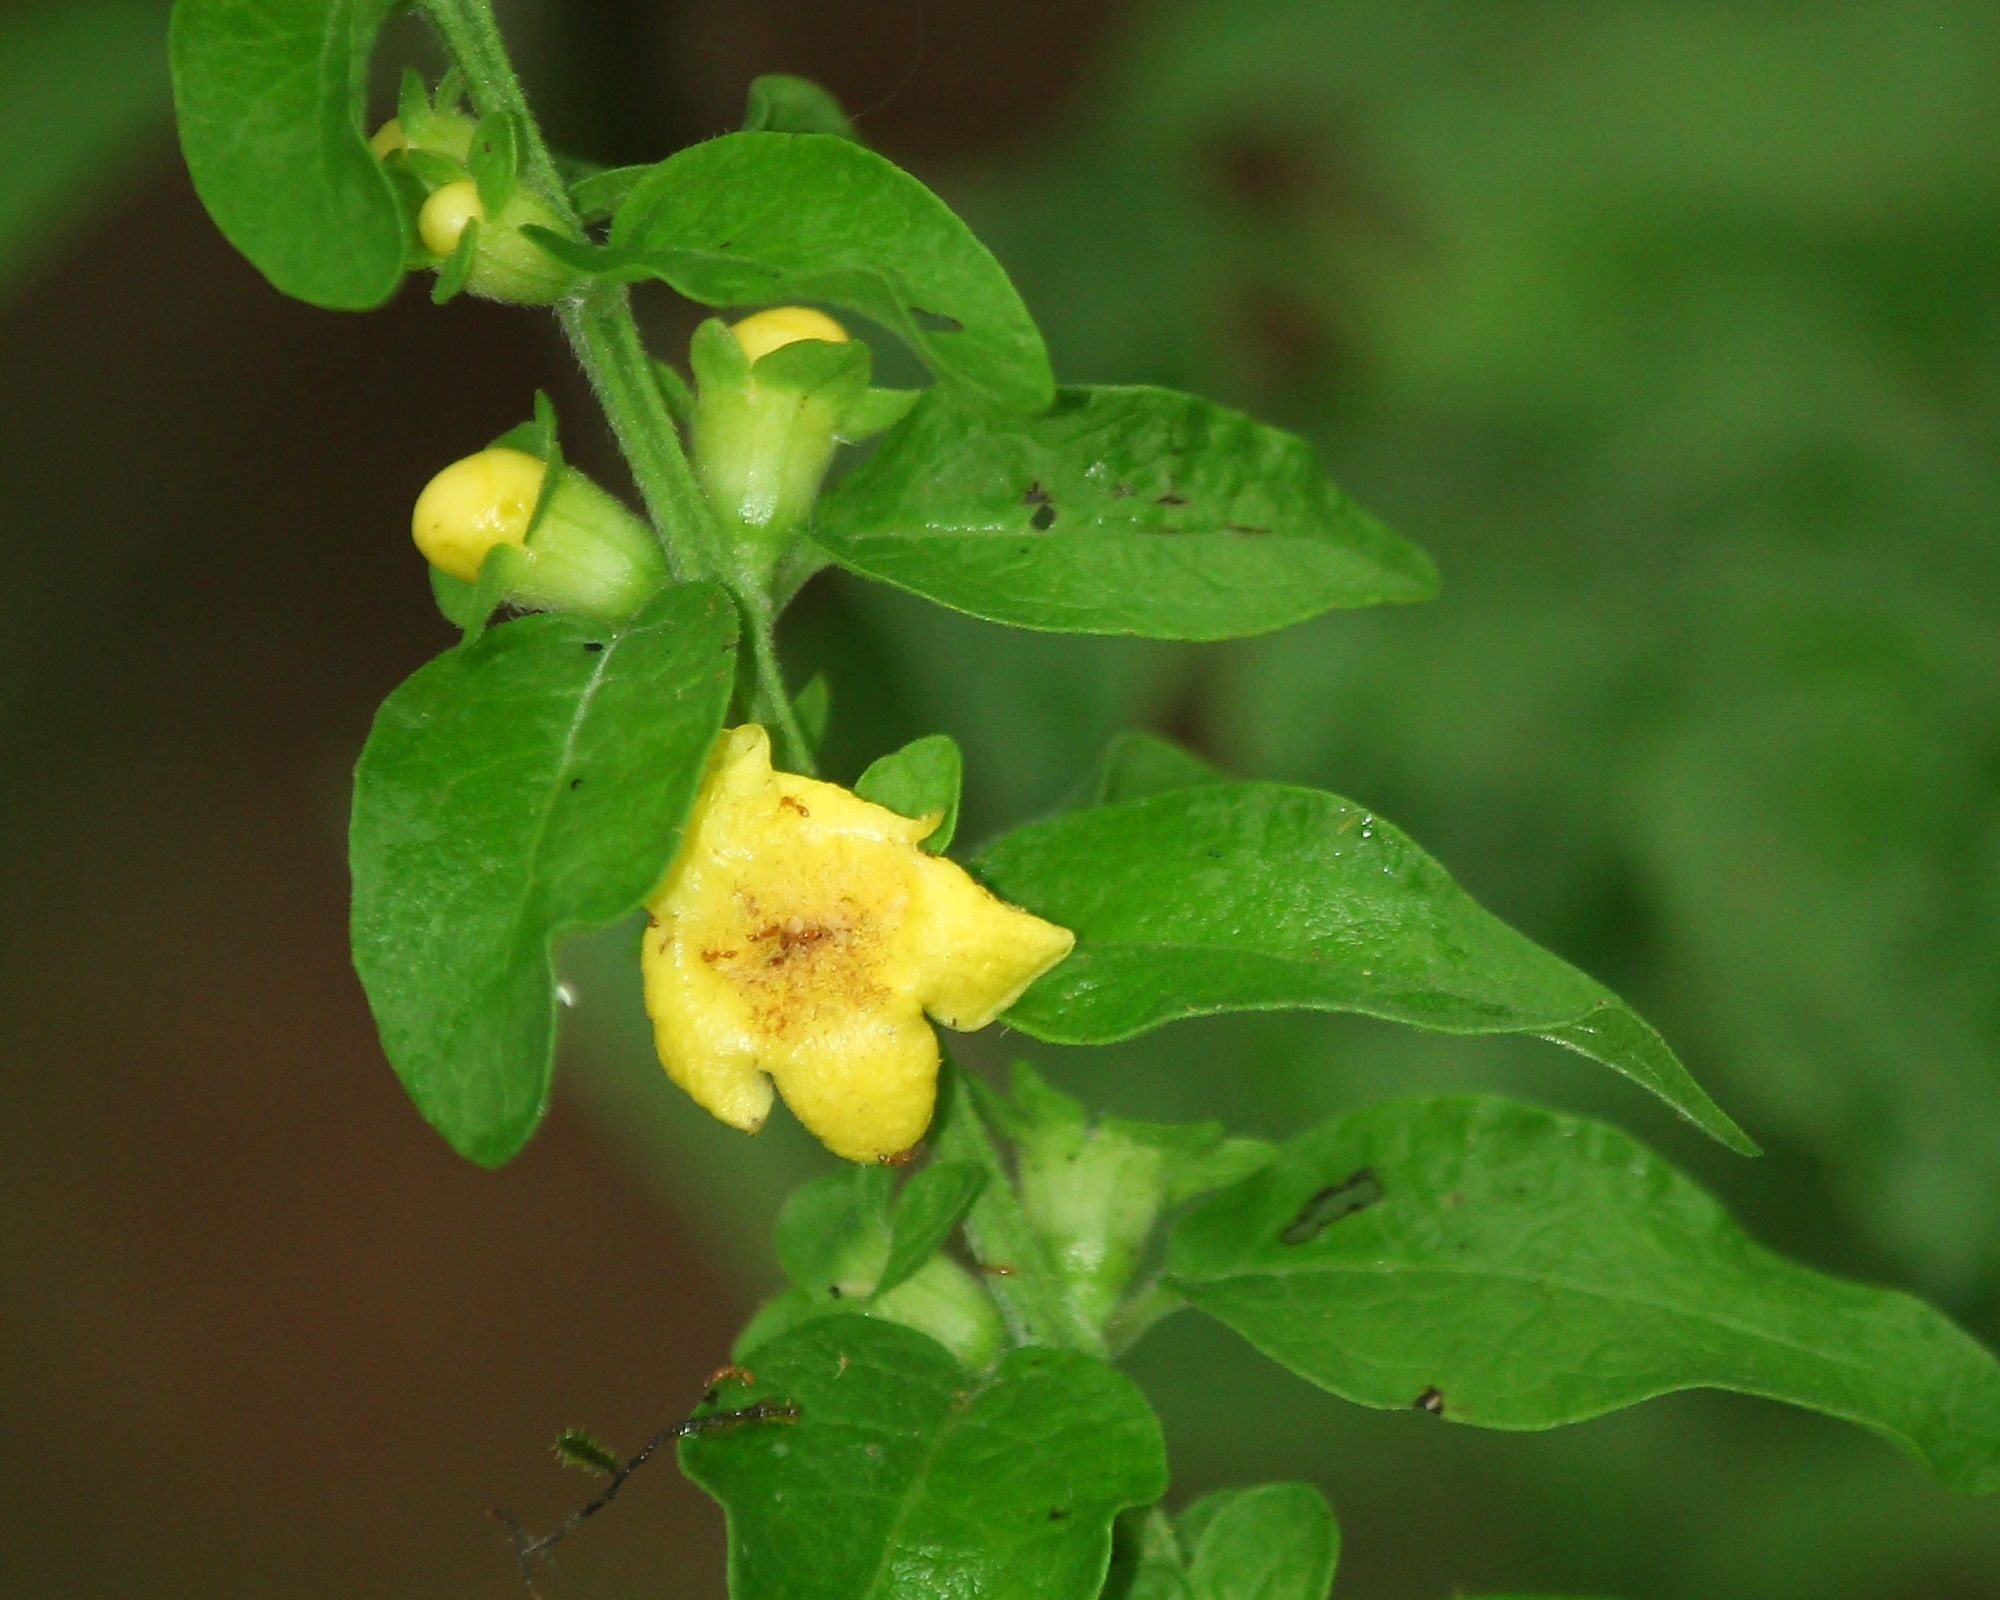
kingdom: Plantae
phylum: Tracheophyta
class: Magnoliopsida
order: Lamiales
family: Orobanchaceae
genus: Dasistoma
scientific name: Dasistoma macrophyllum
